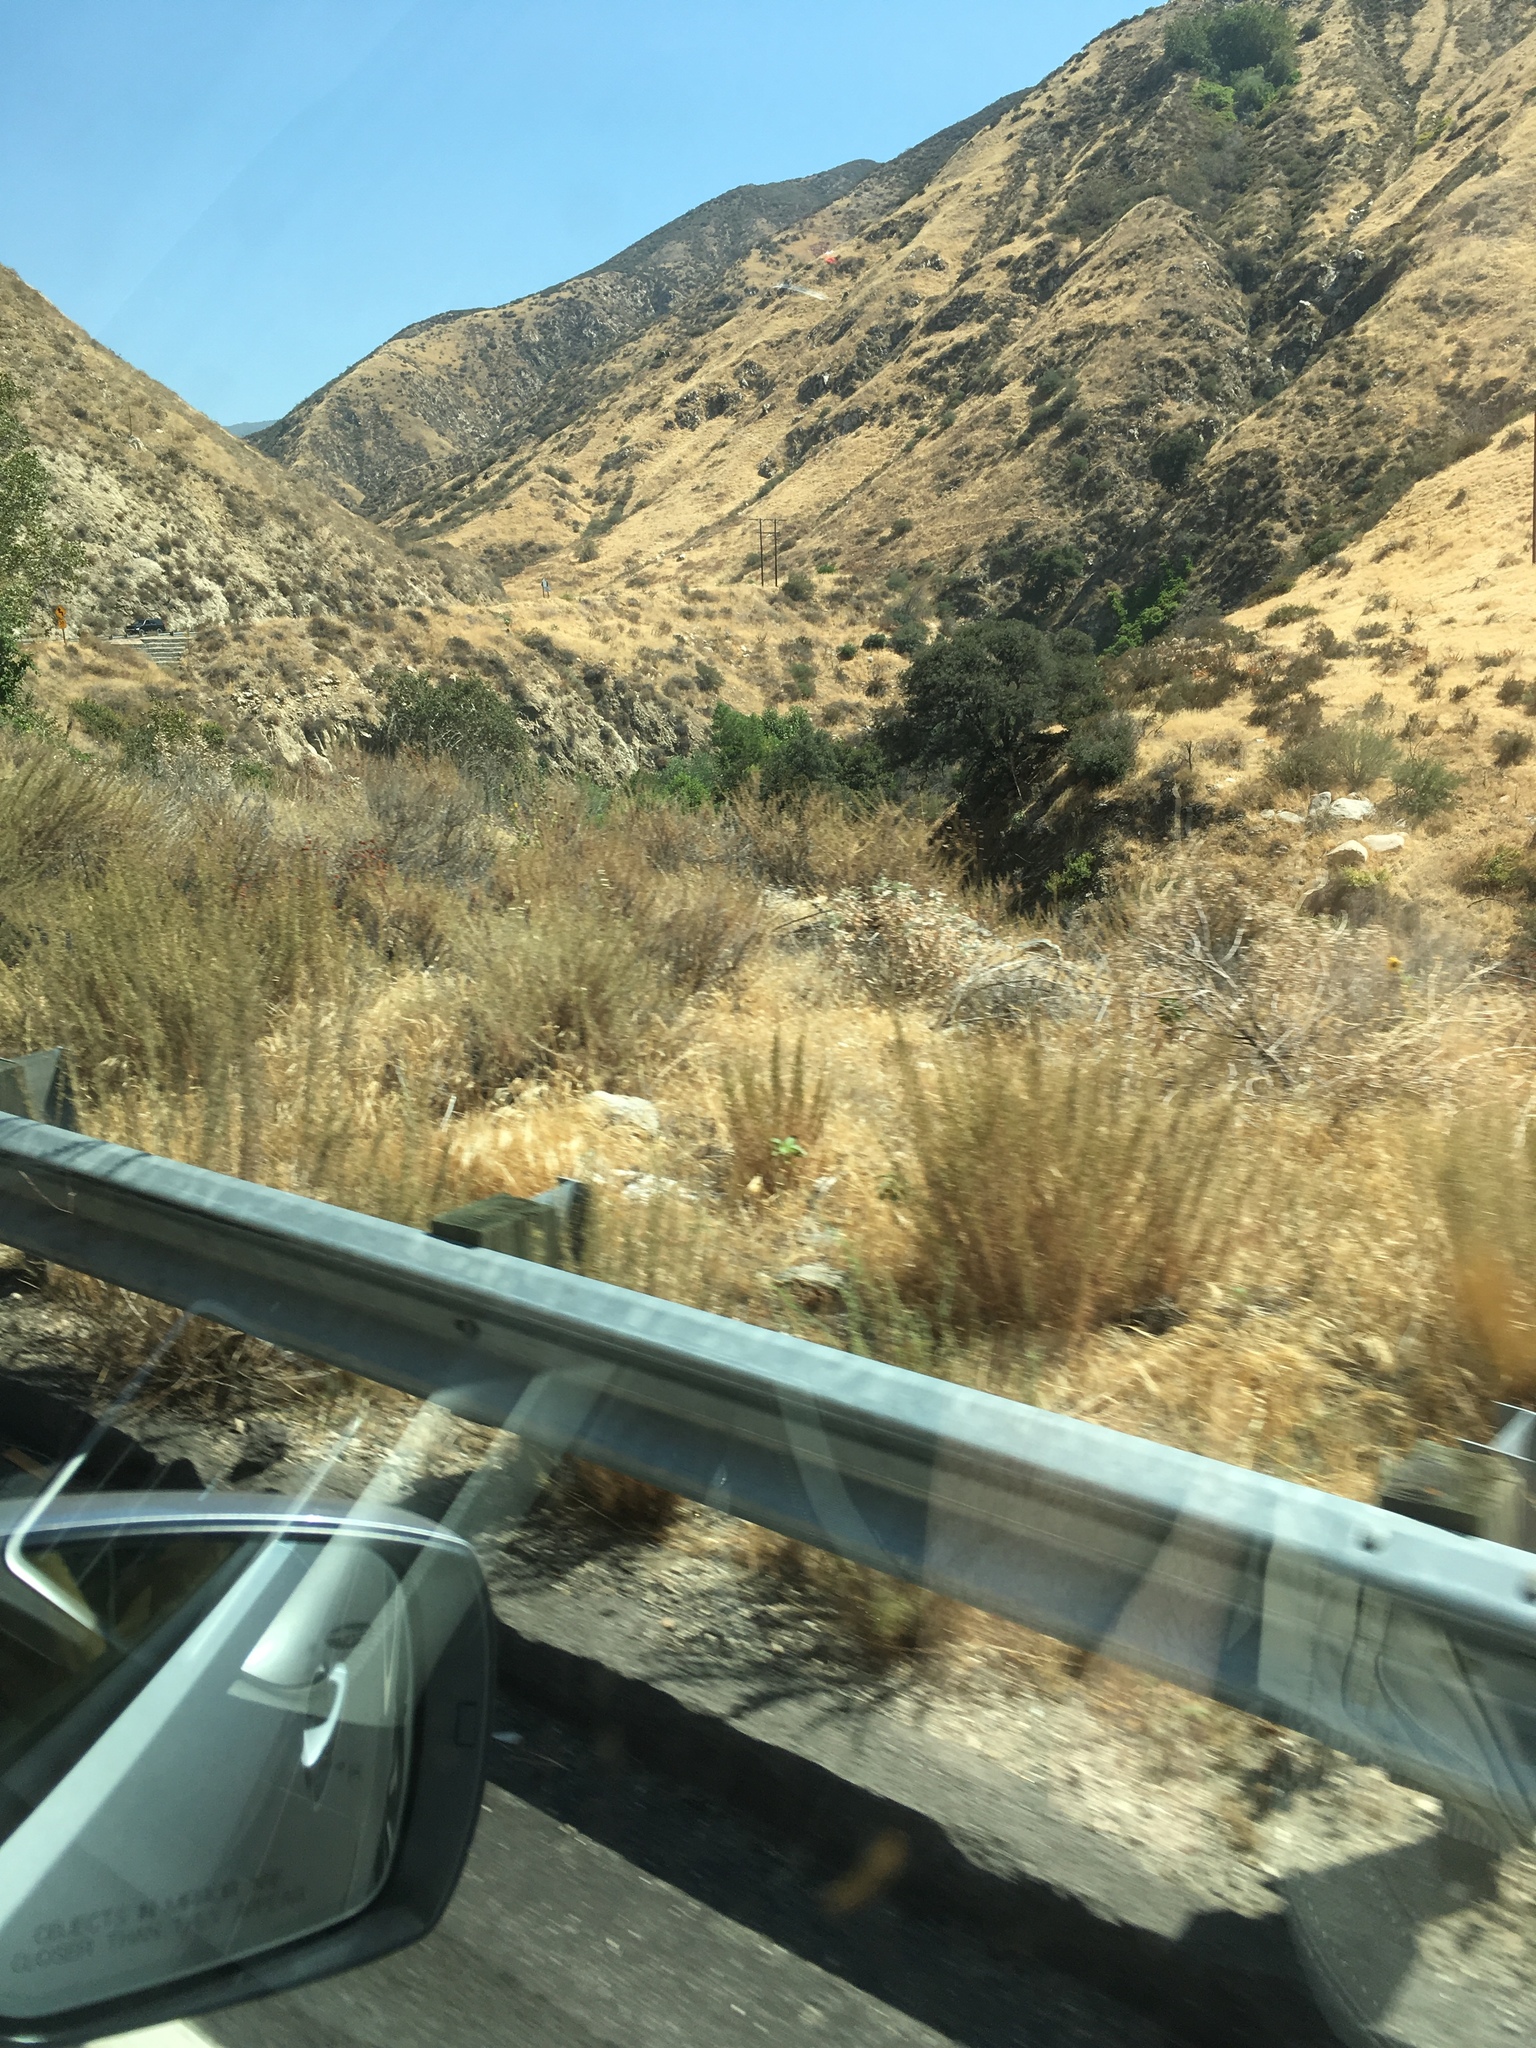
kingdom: Plantae
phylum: Tracheophyta
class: Magnoliopsida
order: Asterales
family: Asteraceae
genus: Artemisia
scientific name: Artemisia californica
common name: California sagebrush
